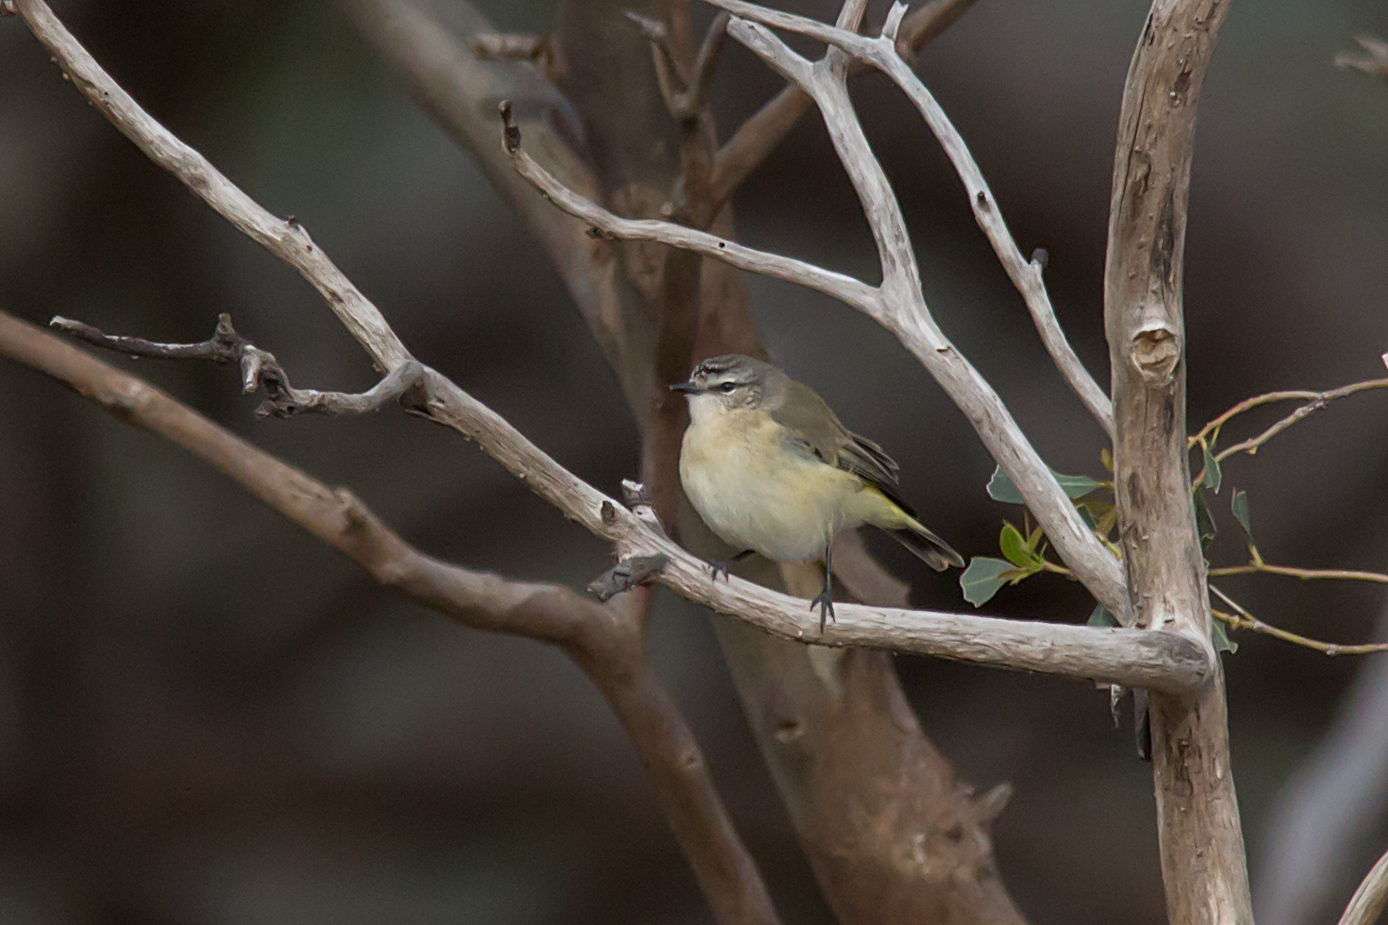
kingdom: Animalia
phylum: Chordata
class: Aves
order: Passeriformes
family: Acanthizidae
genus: Acanthiza
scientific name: Acanthiza chrysorrhoa
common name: Yellow-rumped thornbill
